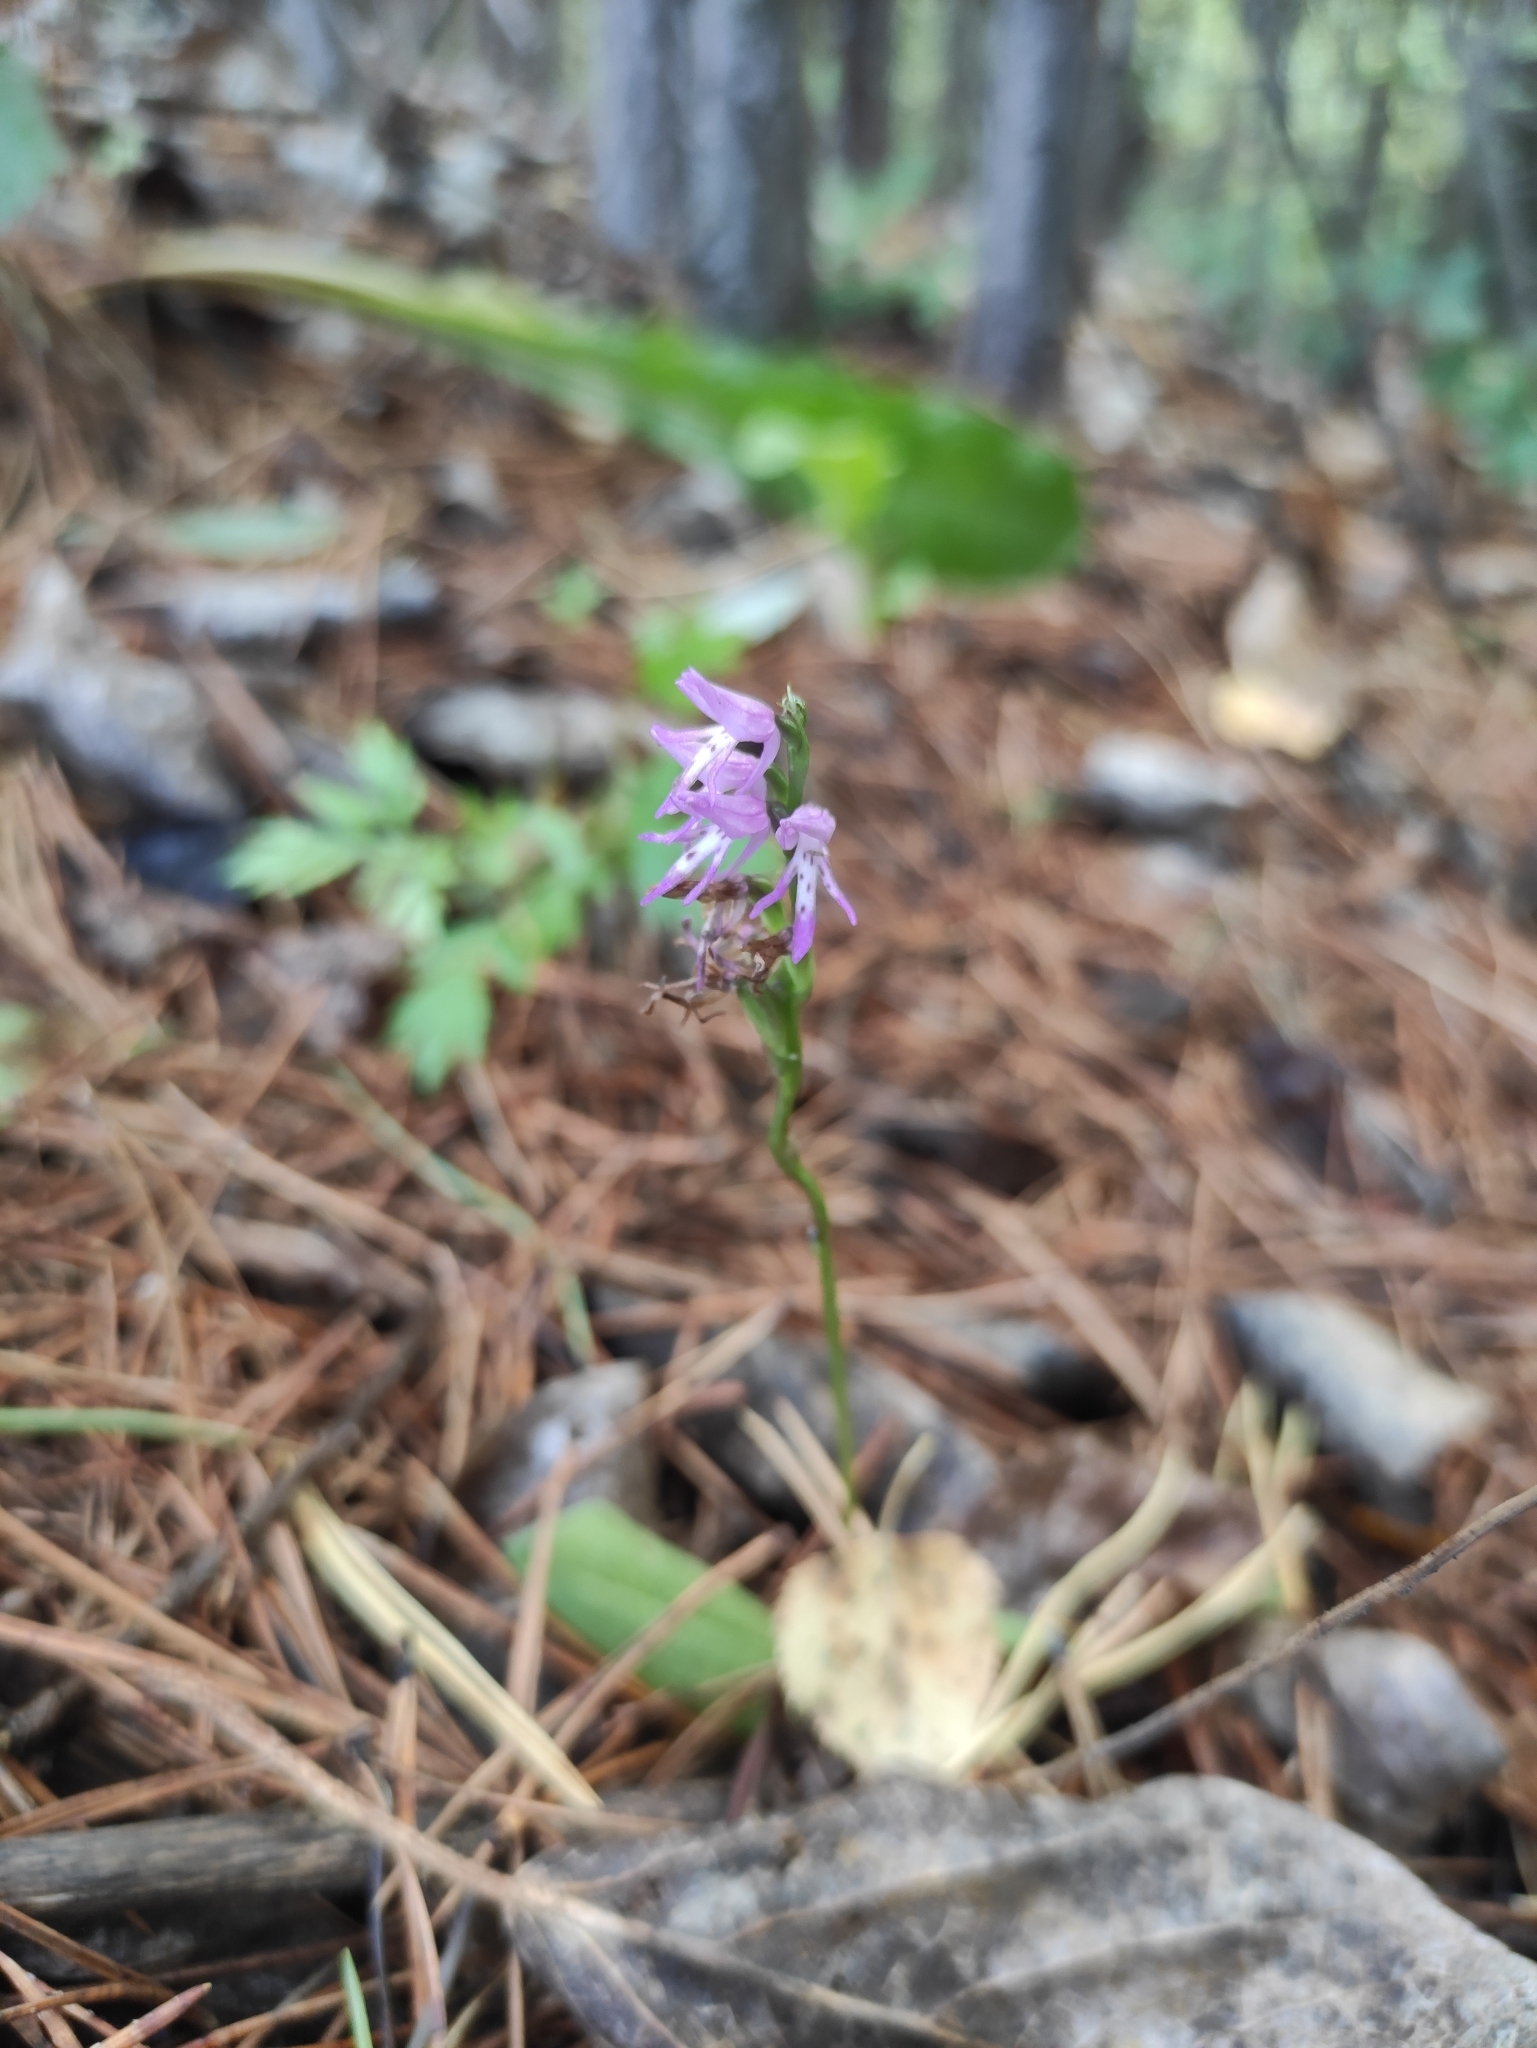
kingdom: Plantae
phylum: Tracheophyta
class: Liliopsida
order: Asparagales
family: Orchidaceae
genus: Hemipilia
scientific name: Hemipilia cucullata
